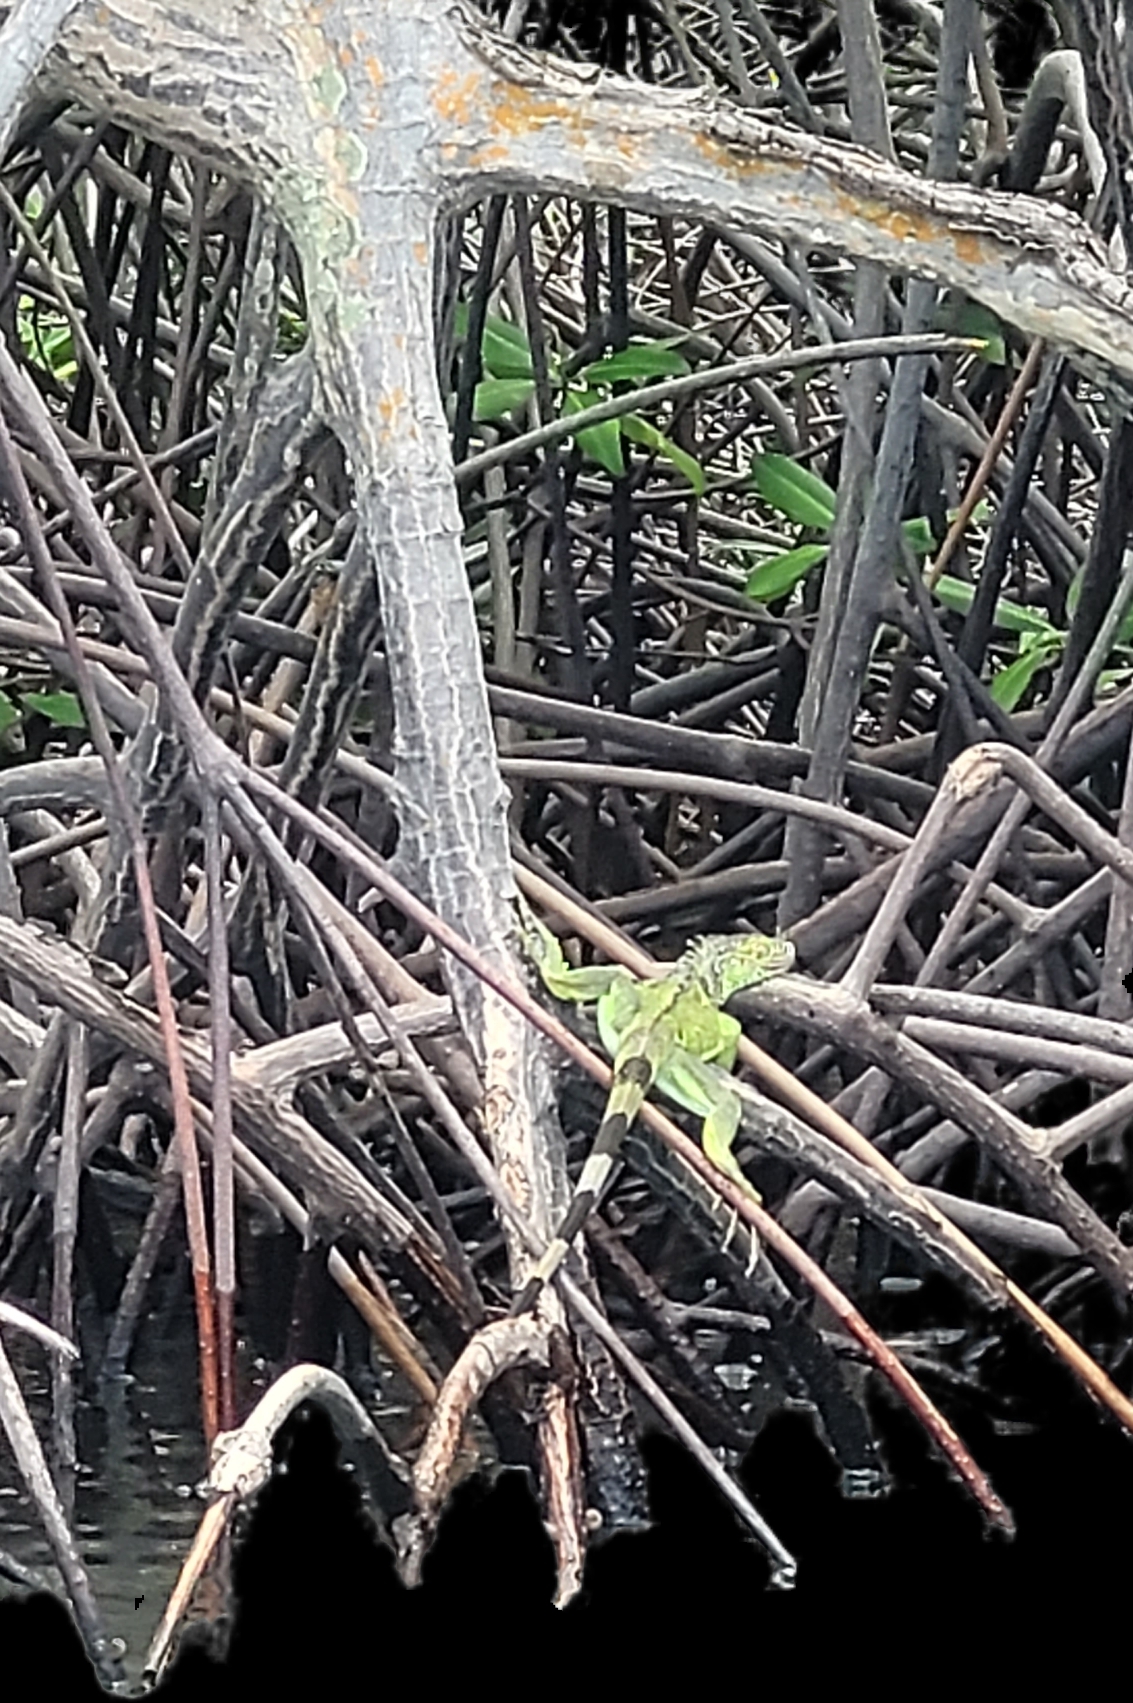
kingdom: Animalia
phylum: Chordata
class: Squamata
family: Iguanidae
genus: Iguana
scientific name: Iguana iguana
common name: Green iguana
